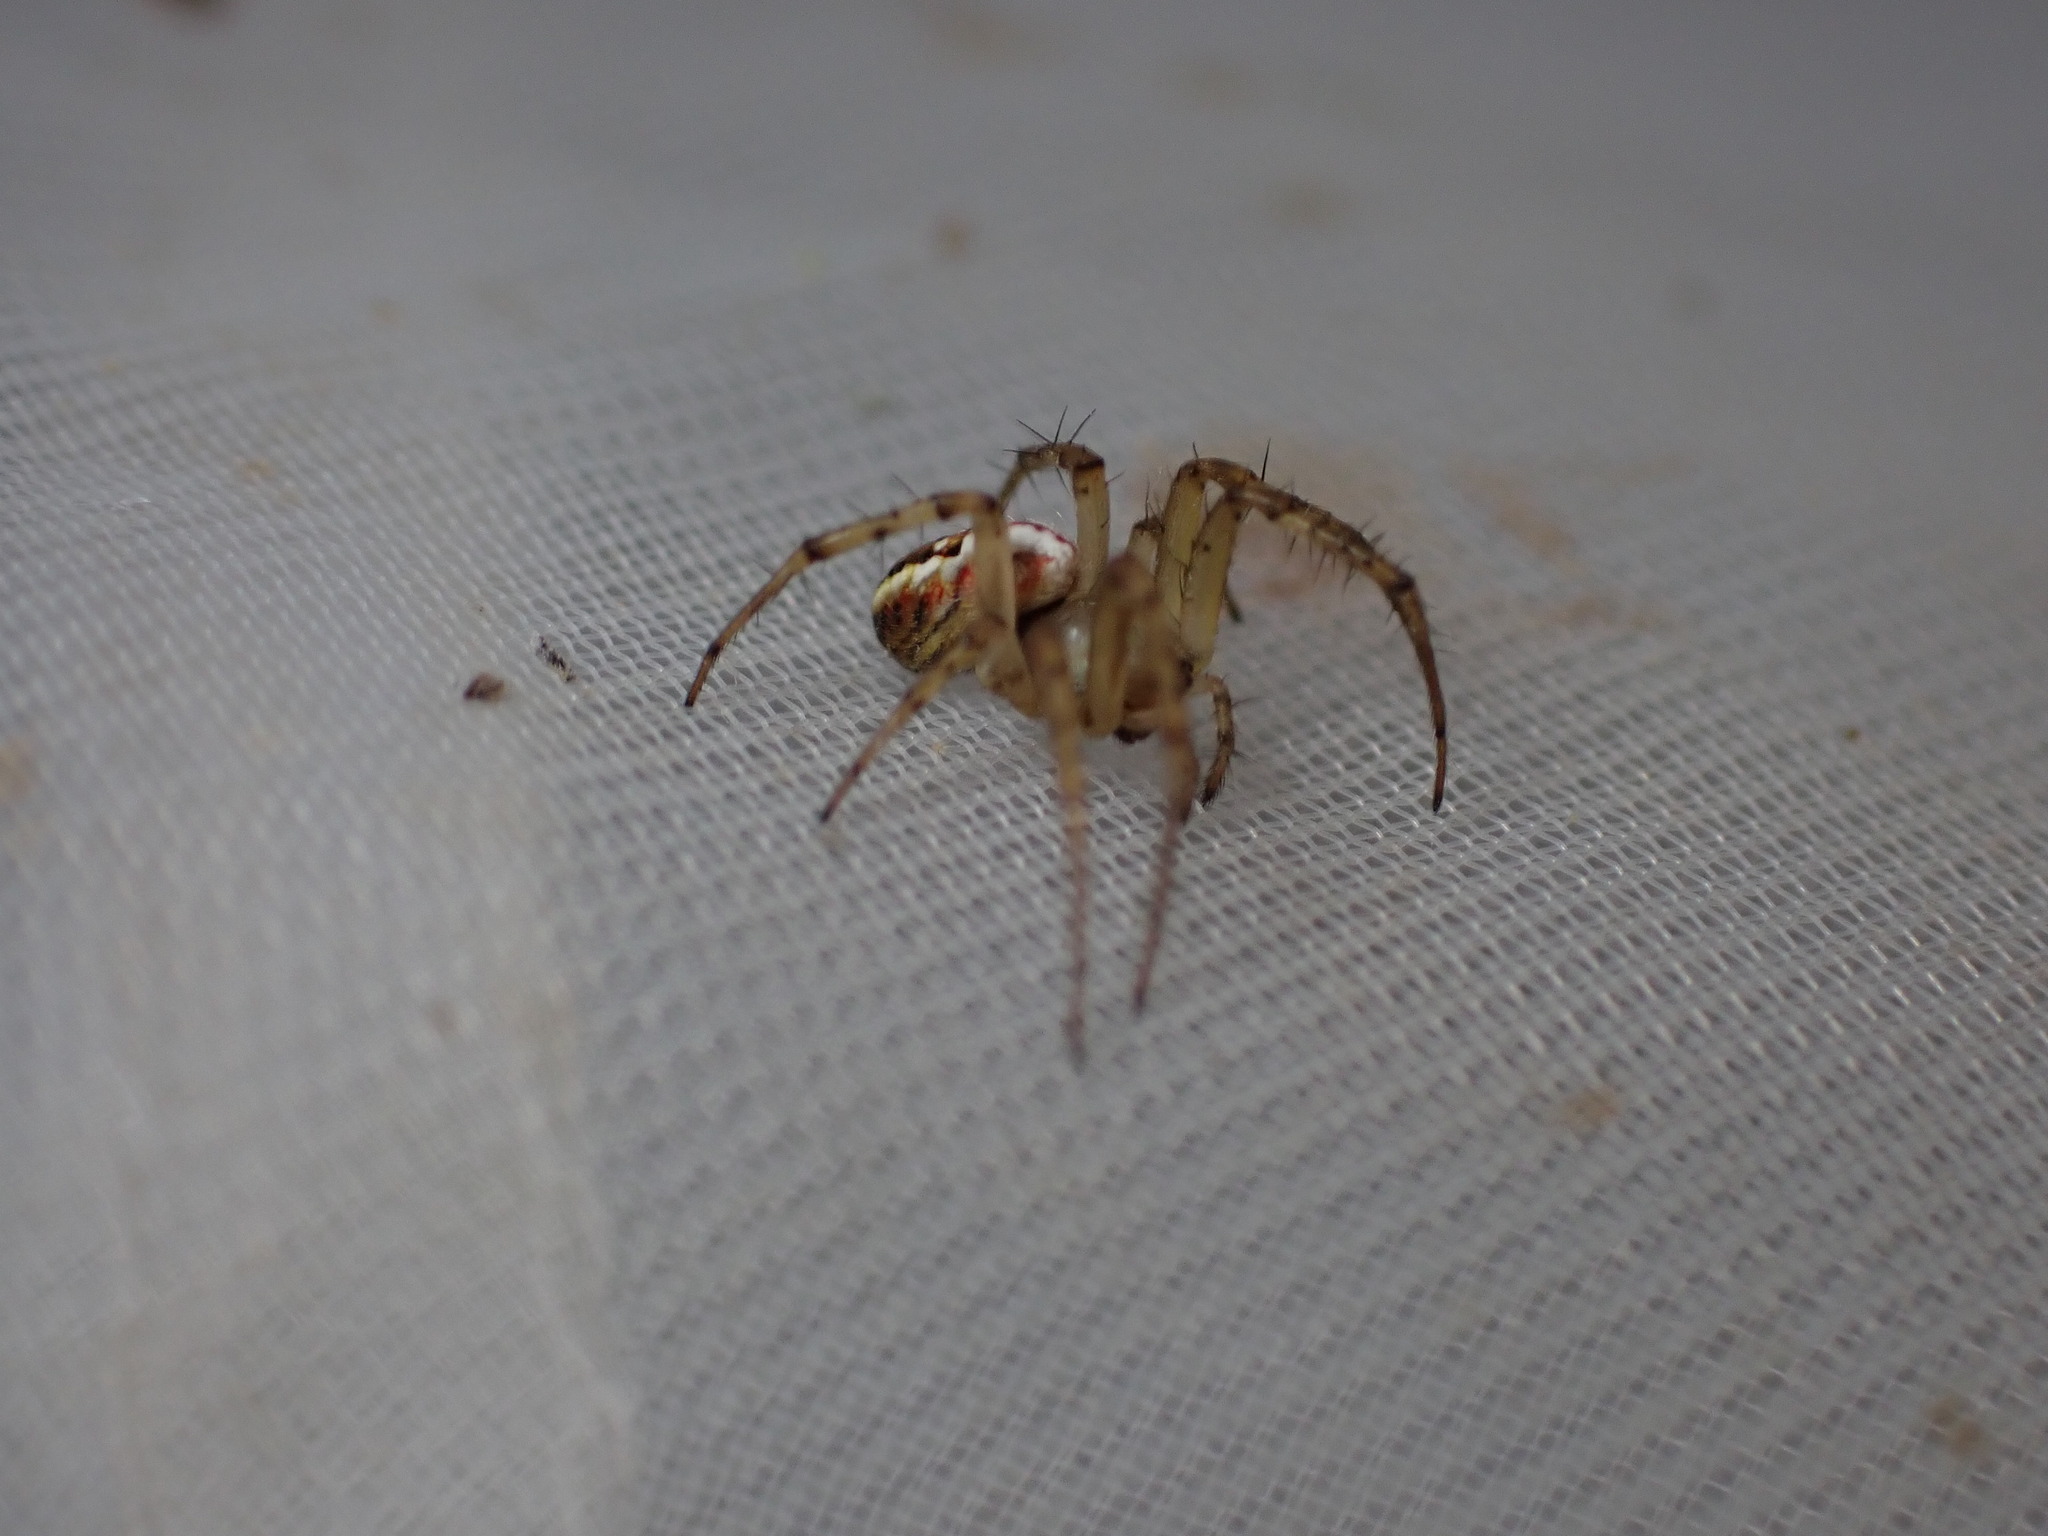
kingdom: Animalia
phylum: Arthropoda
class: Arachnida
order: Araneae
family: Araneidae
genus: Mangora
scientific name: Mangora acalypha
